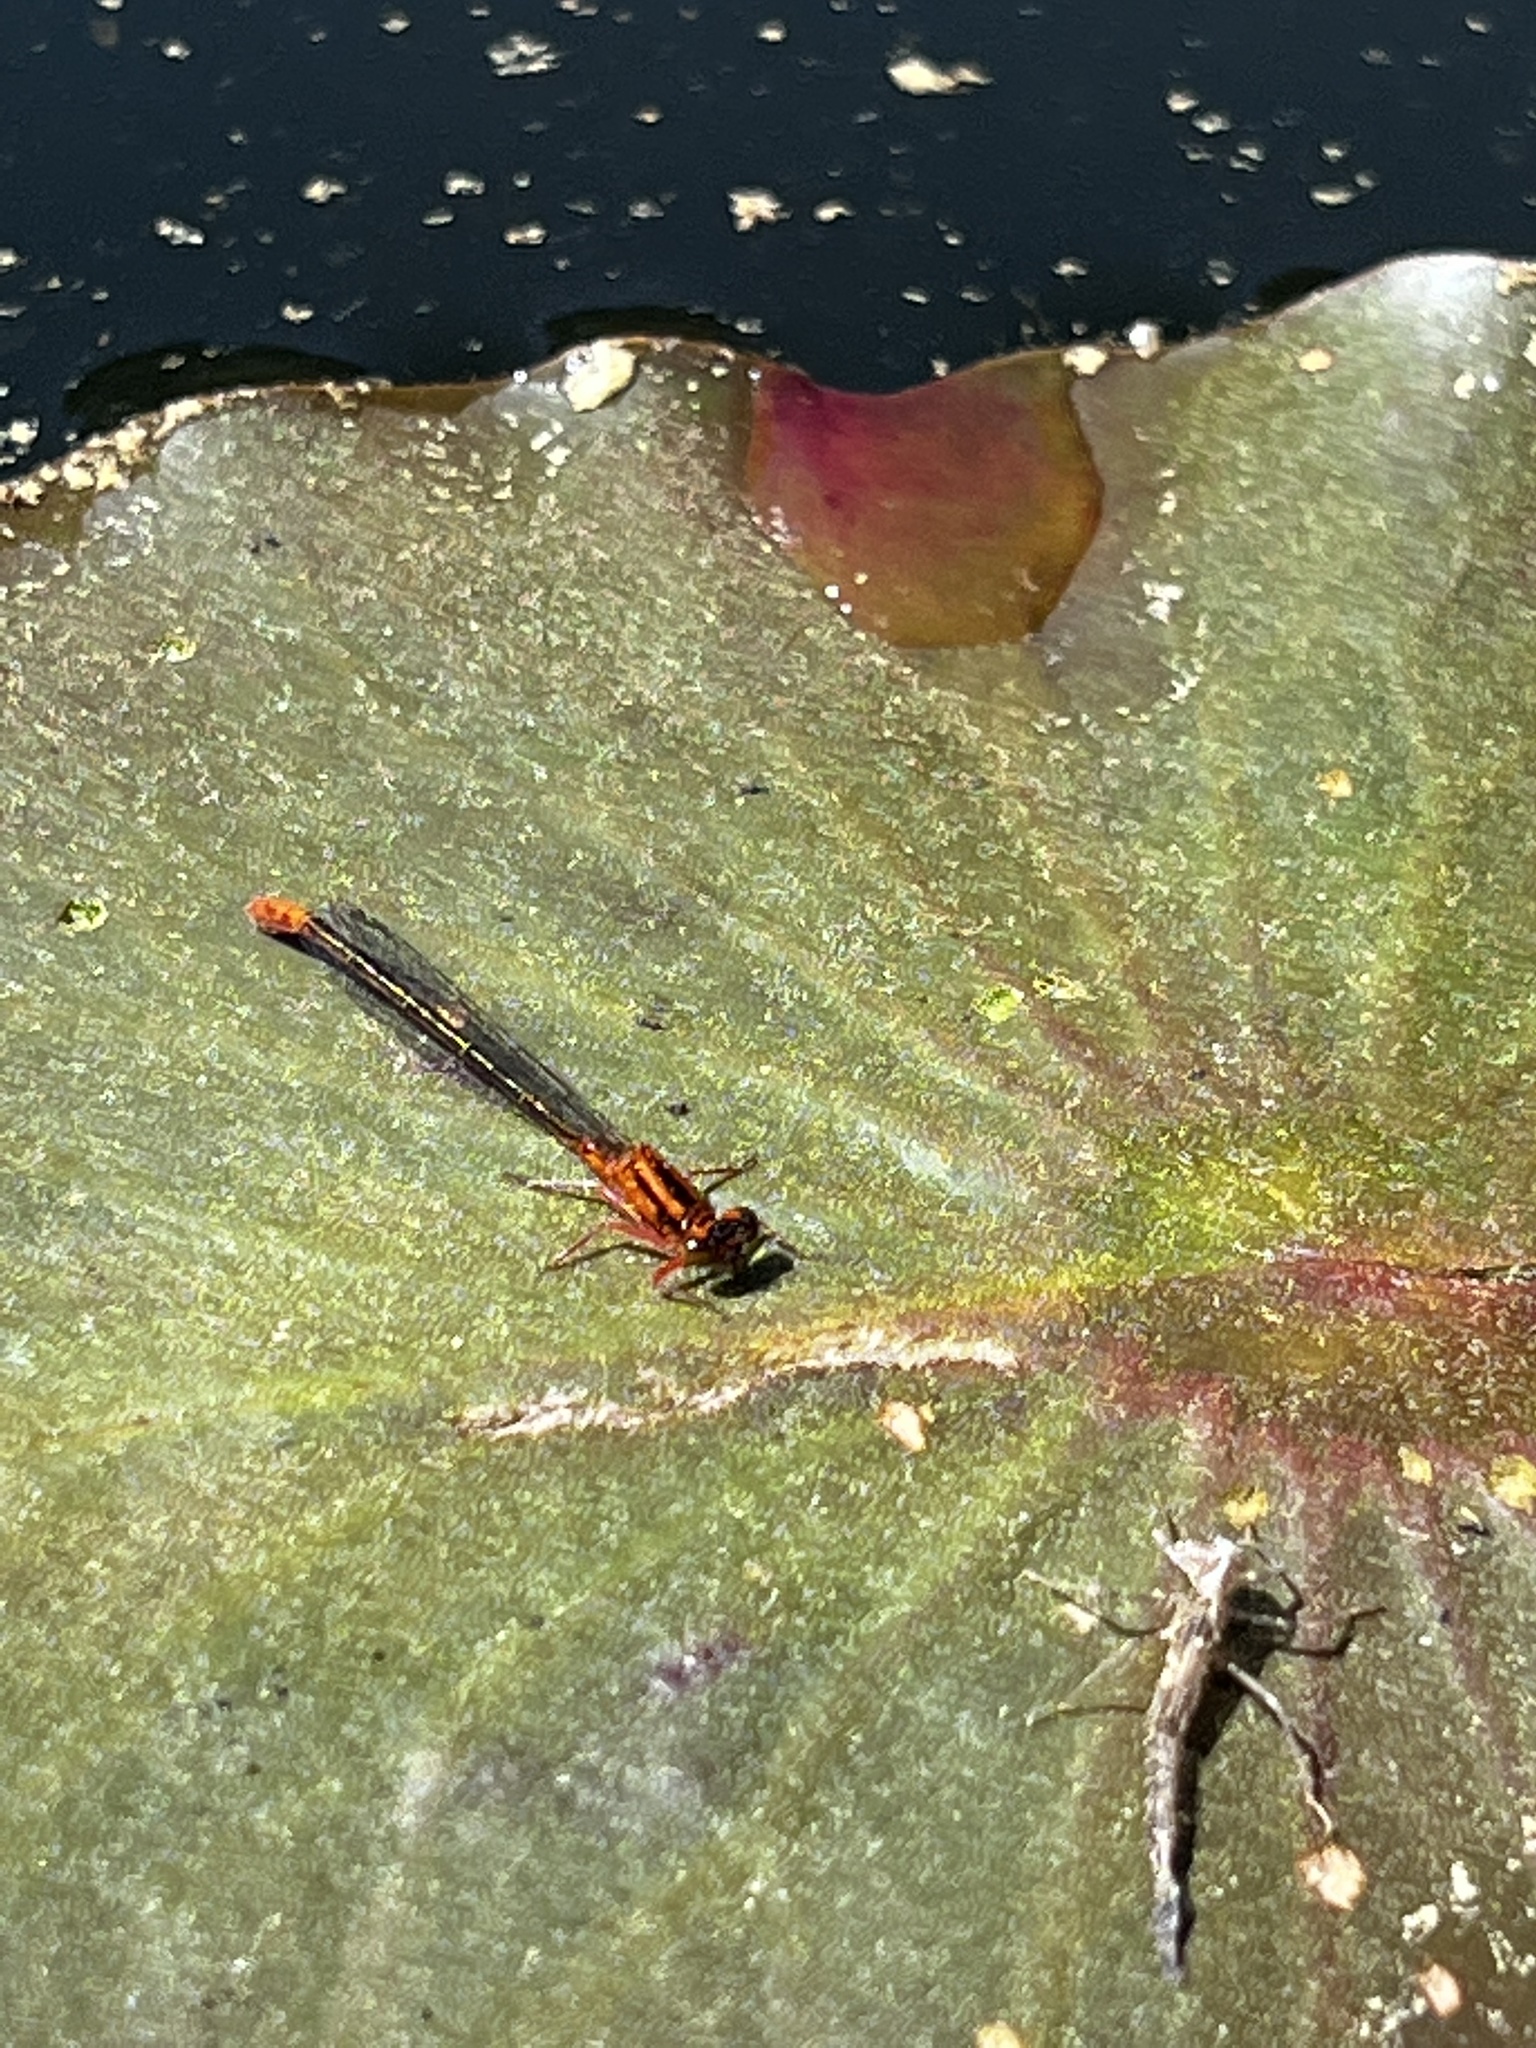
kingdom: Animalia
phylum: Arthropoda
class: Insecta
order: Odonata
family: Coenagrionidae
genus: Ischnura
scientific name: Ischnura kellicotti
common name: Lilypad forktail
